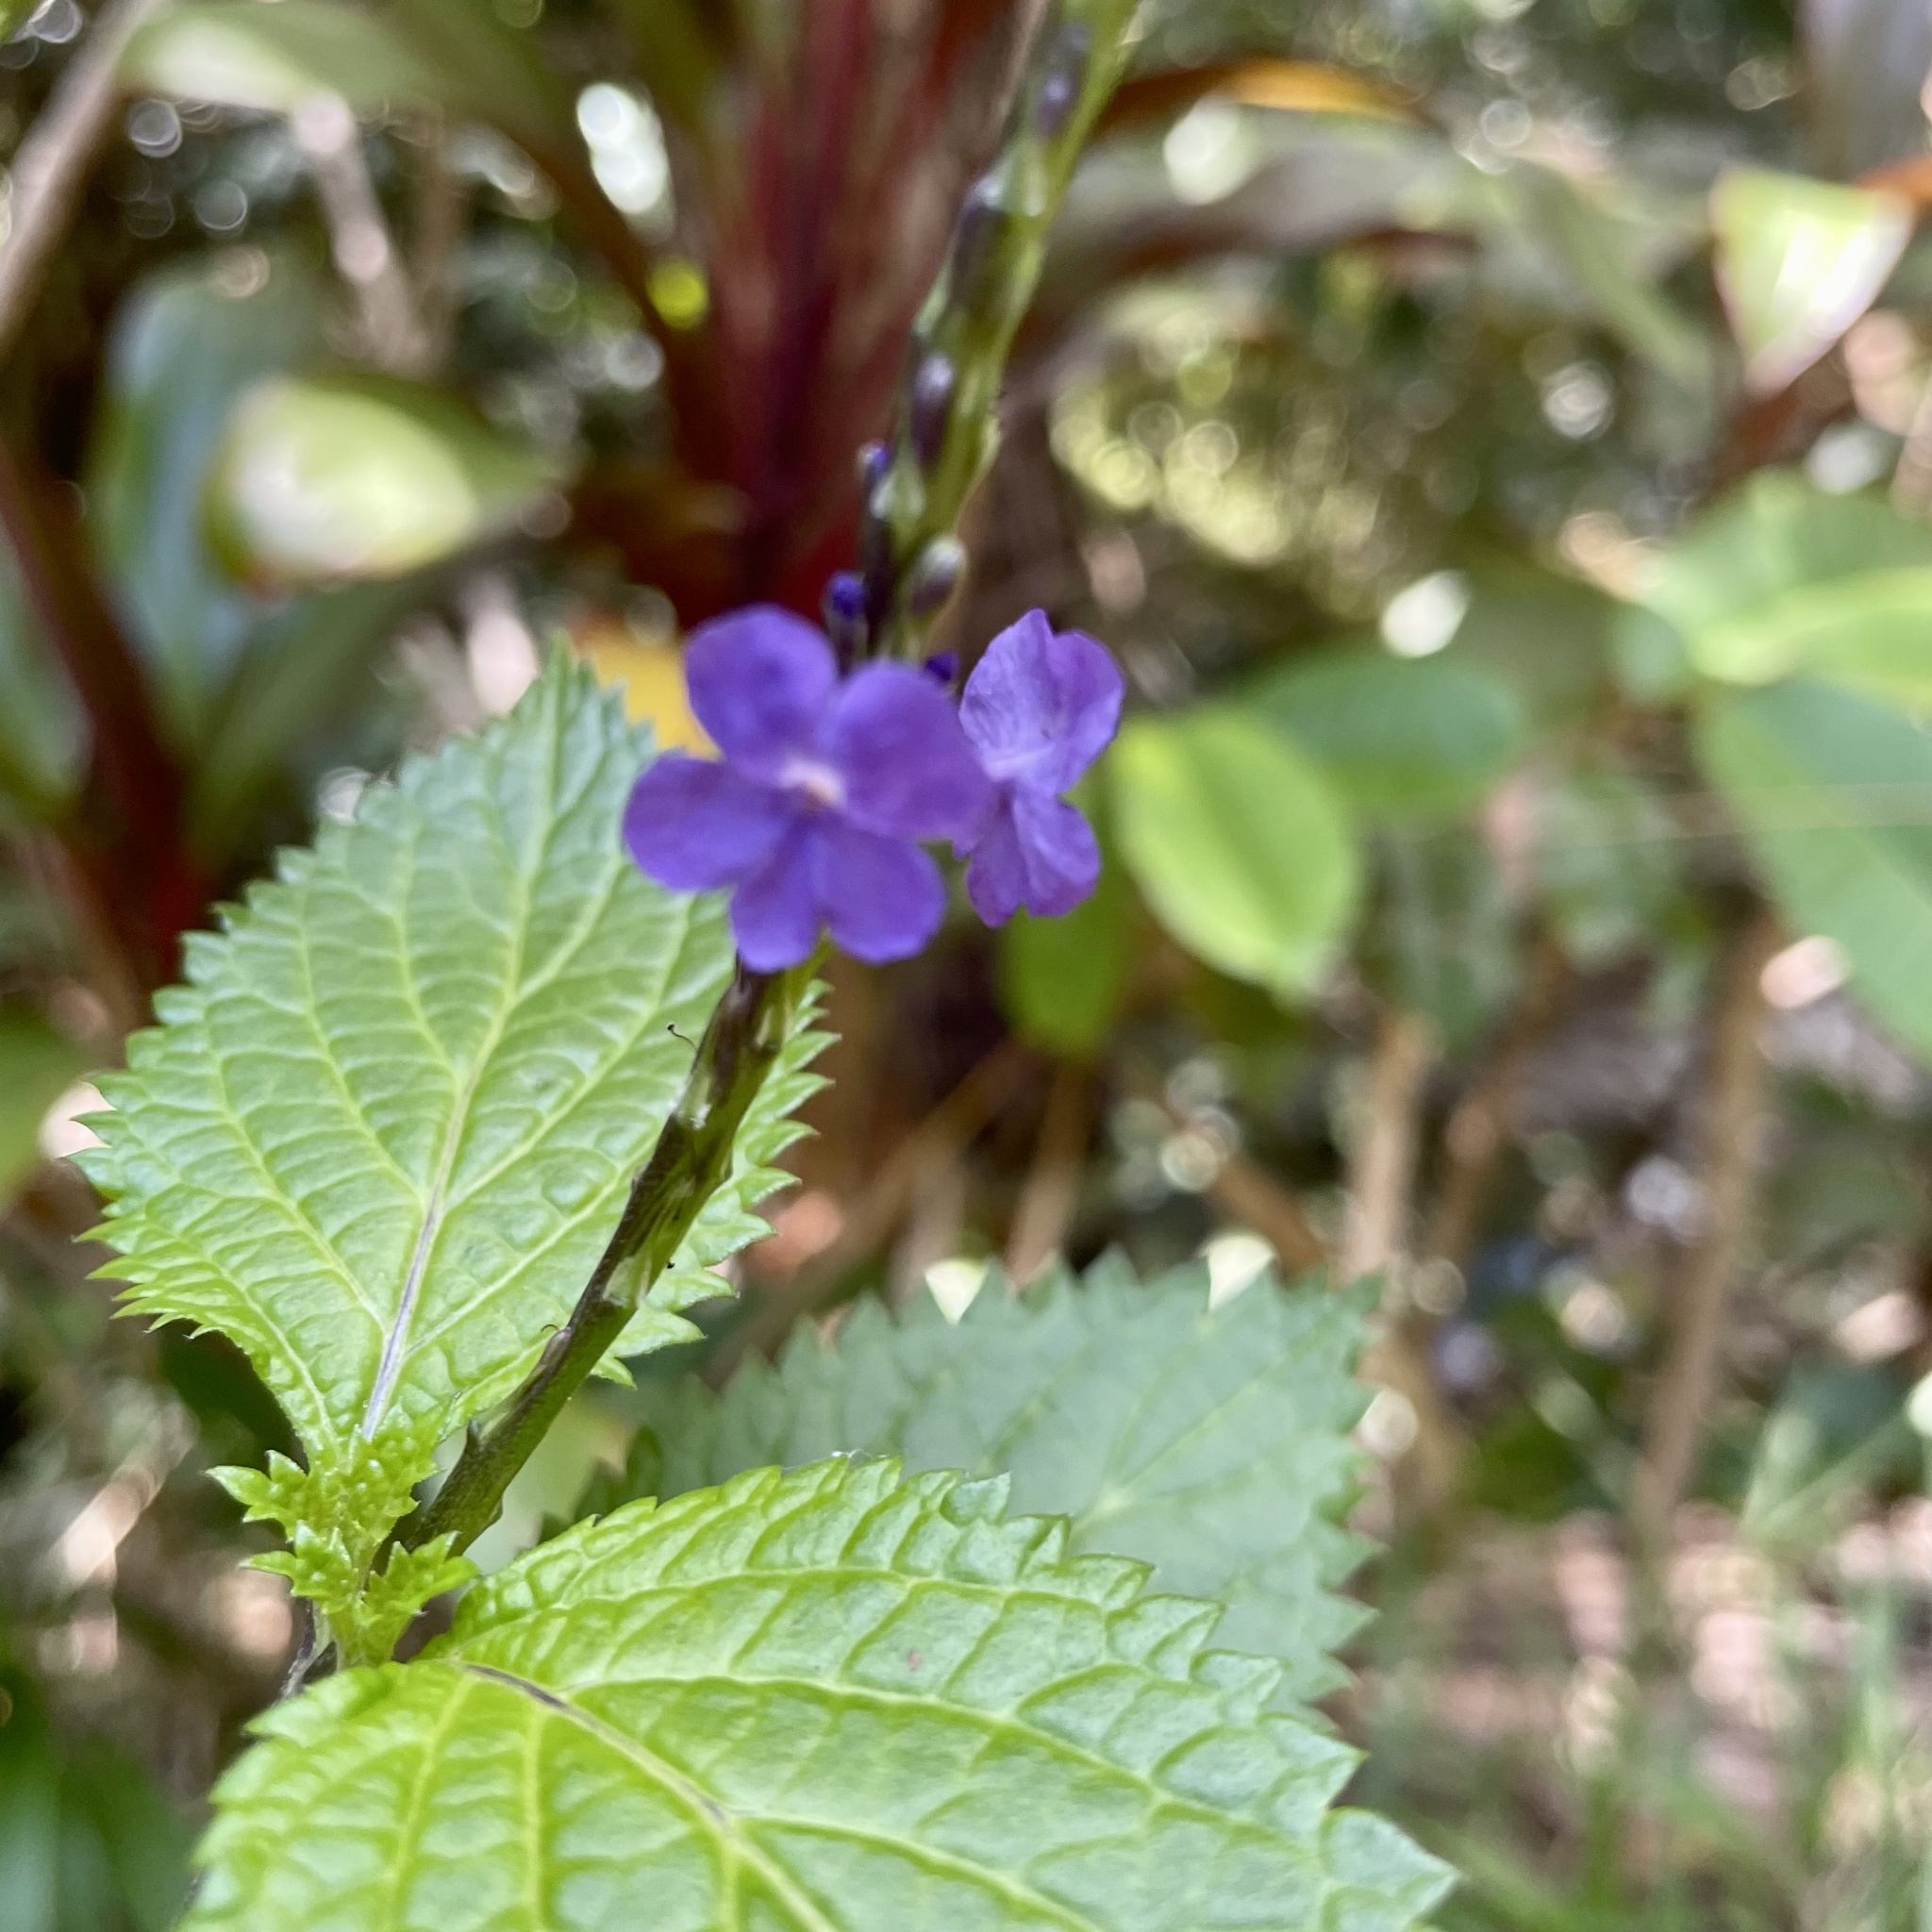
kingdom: Plantae
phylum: Tracheophyta
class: Magnoliopsida
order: Lamiales
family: Verbenaceae
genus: Stachytarpheta
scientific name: Stachytarpheta cayennensis
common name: Cayenne porterweed
